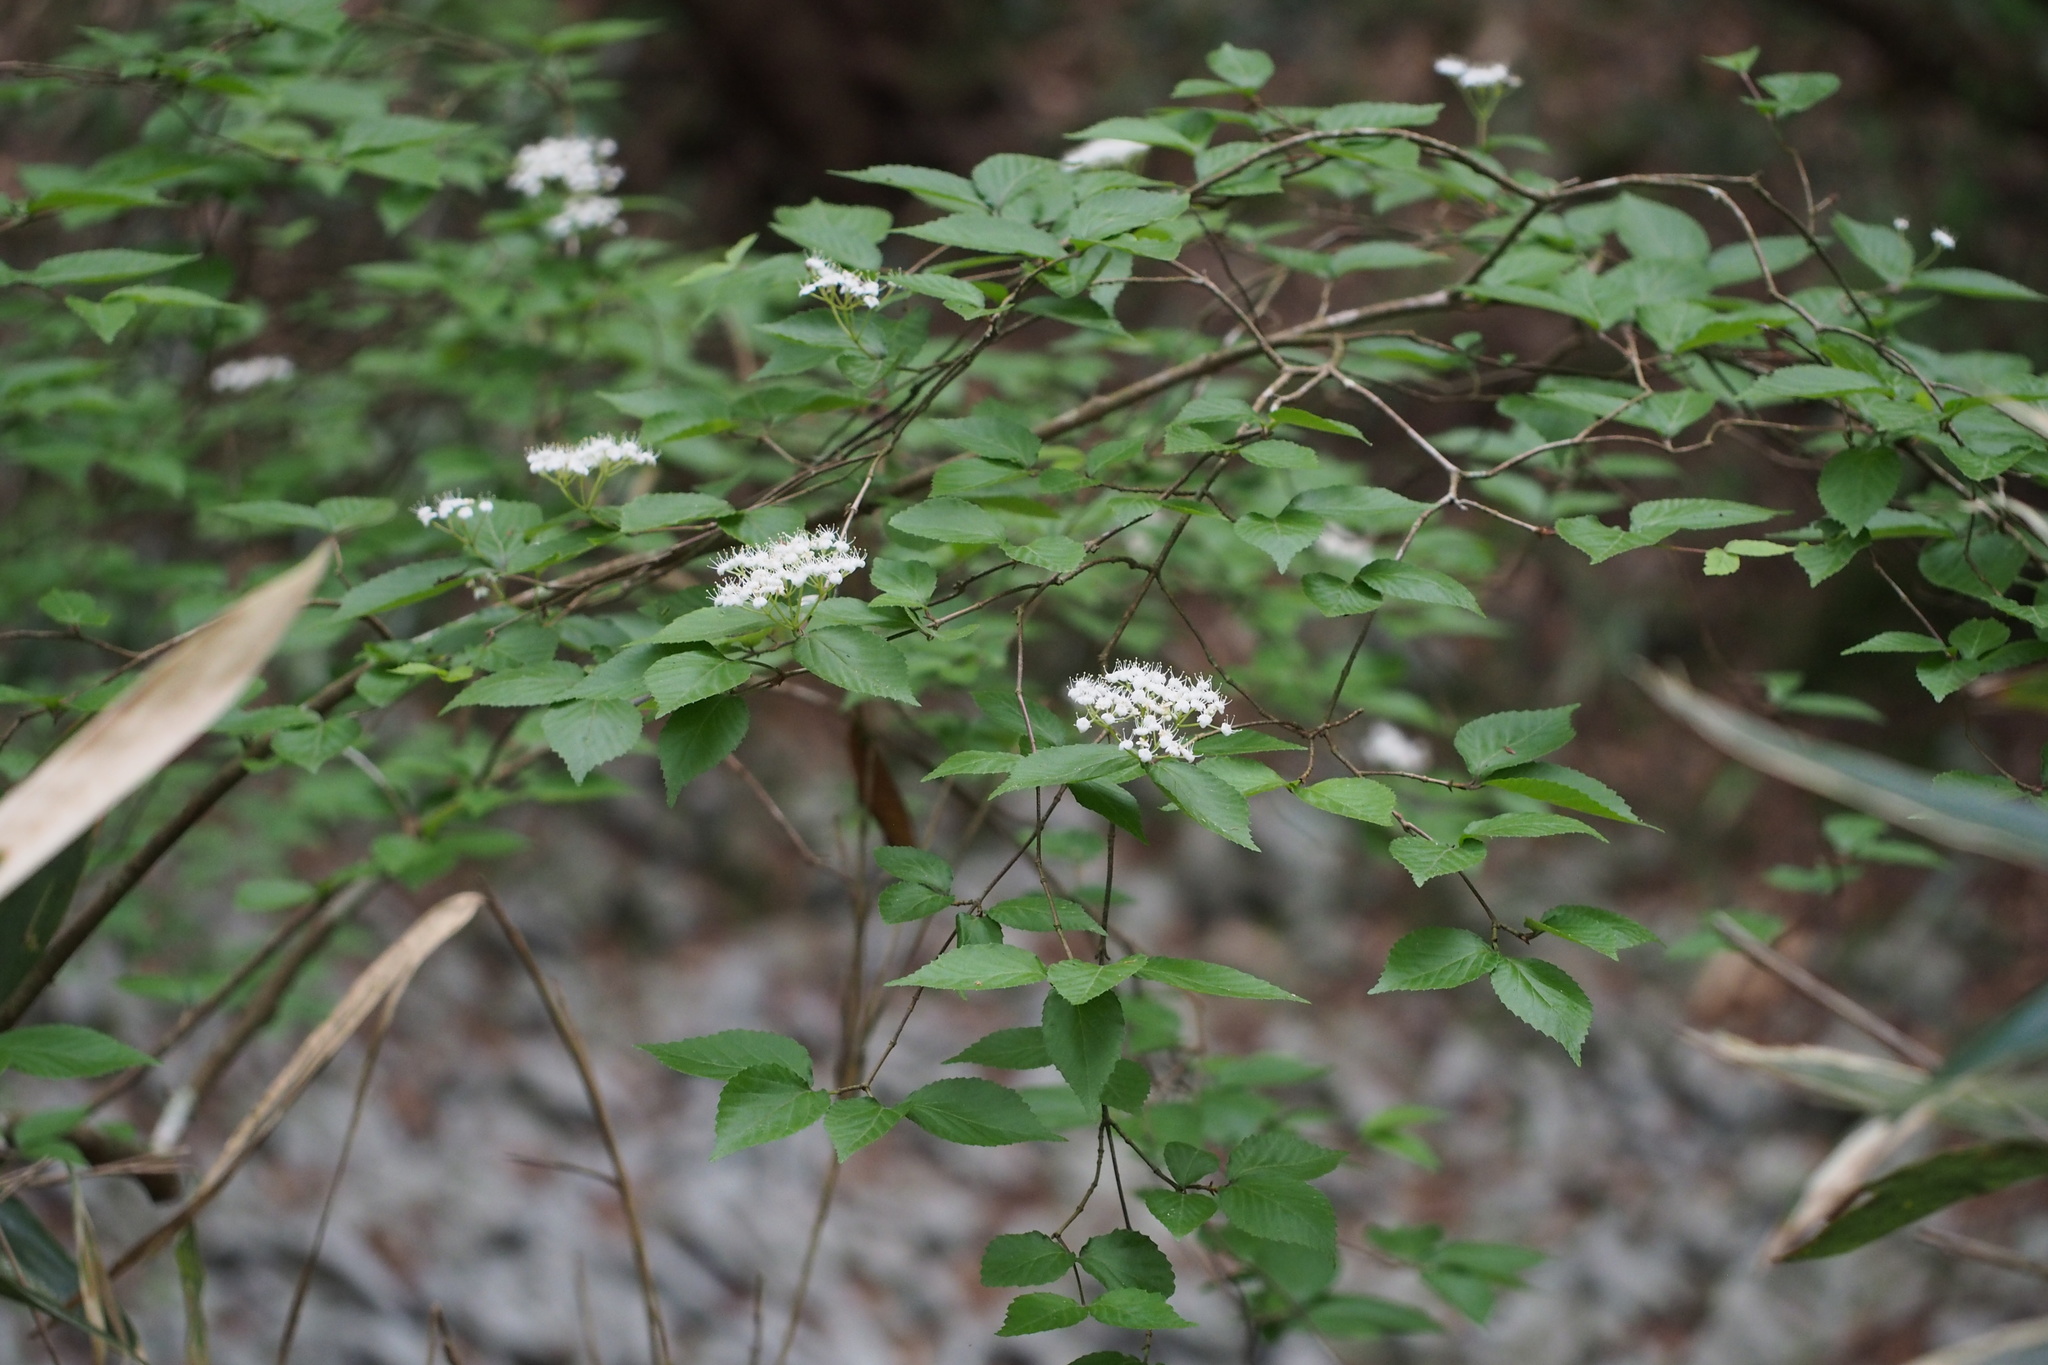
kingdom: Plantae
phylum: Tracheophyta
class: Magnoliopsida
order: Dipsacales
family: Viburnaceae
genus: Viburnum
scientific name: Viburnum erosum
